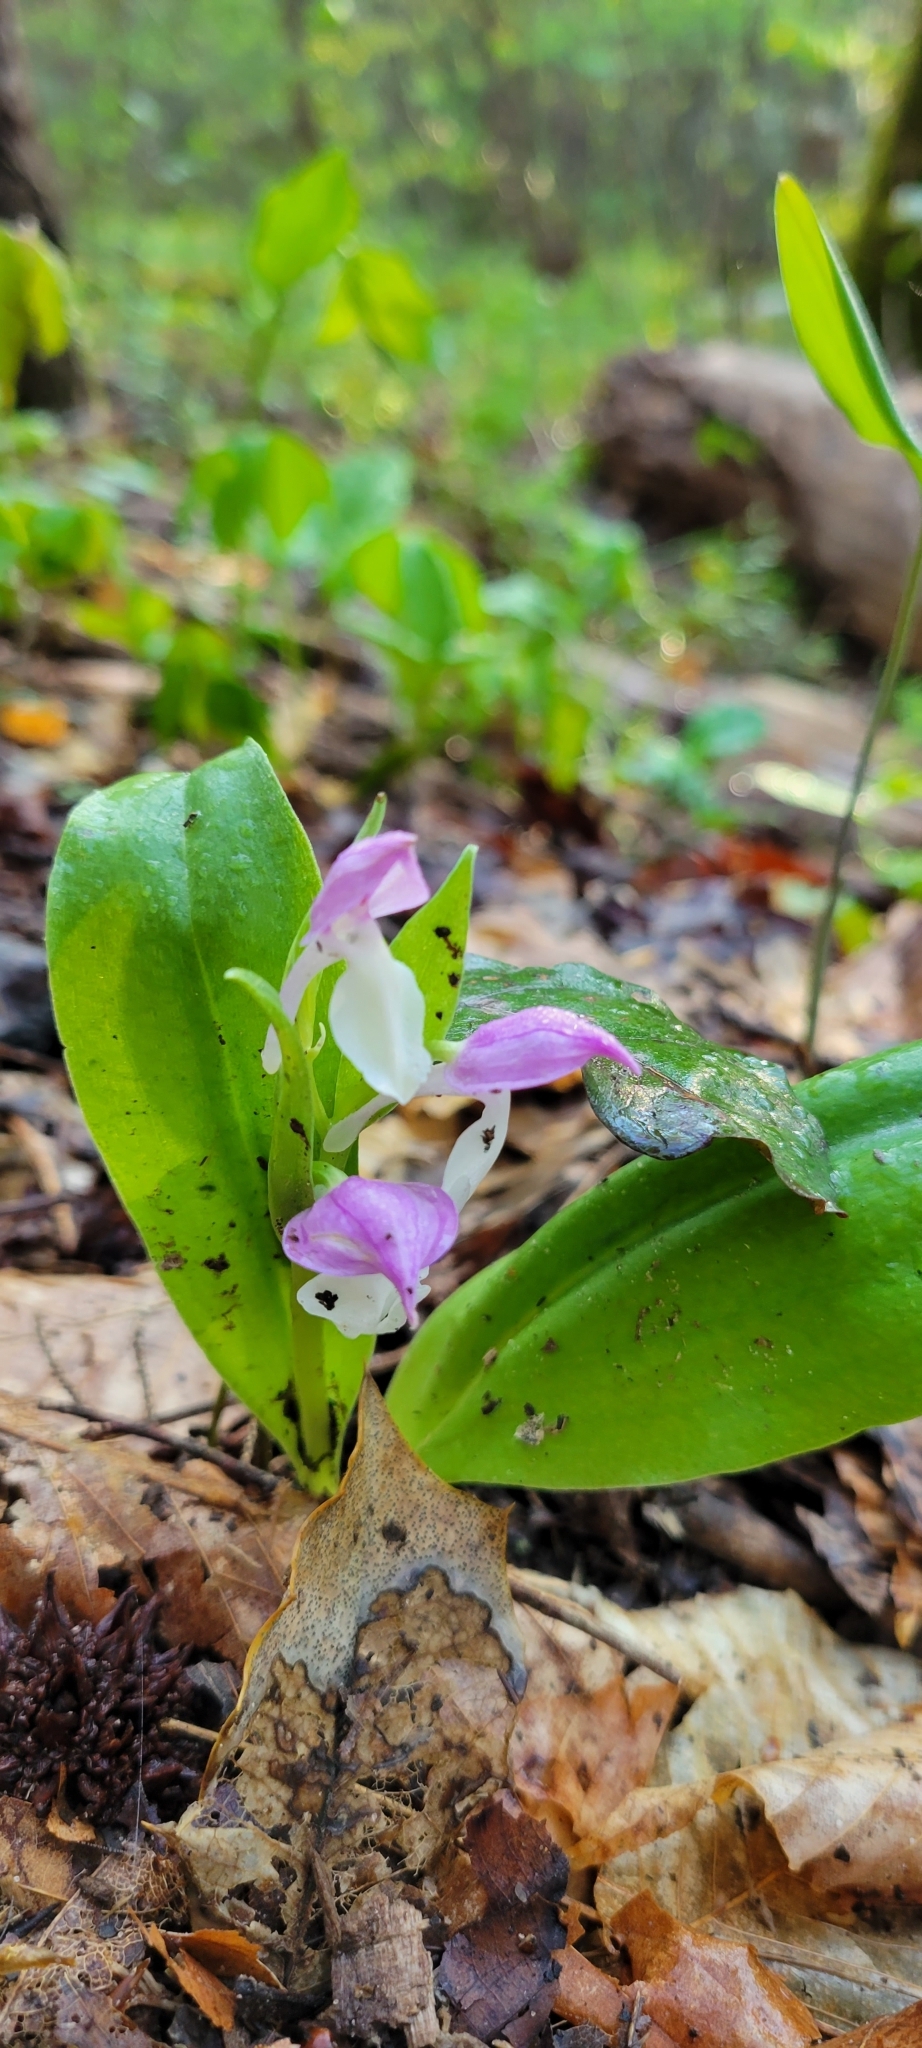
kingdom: Plantae
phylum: Tracheophyta
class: Liliopsida
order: Asparagales
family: Orchidaceae
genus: Galearis
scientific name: Galearis spectabilis
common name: Purple-hooded orchis
